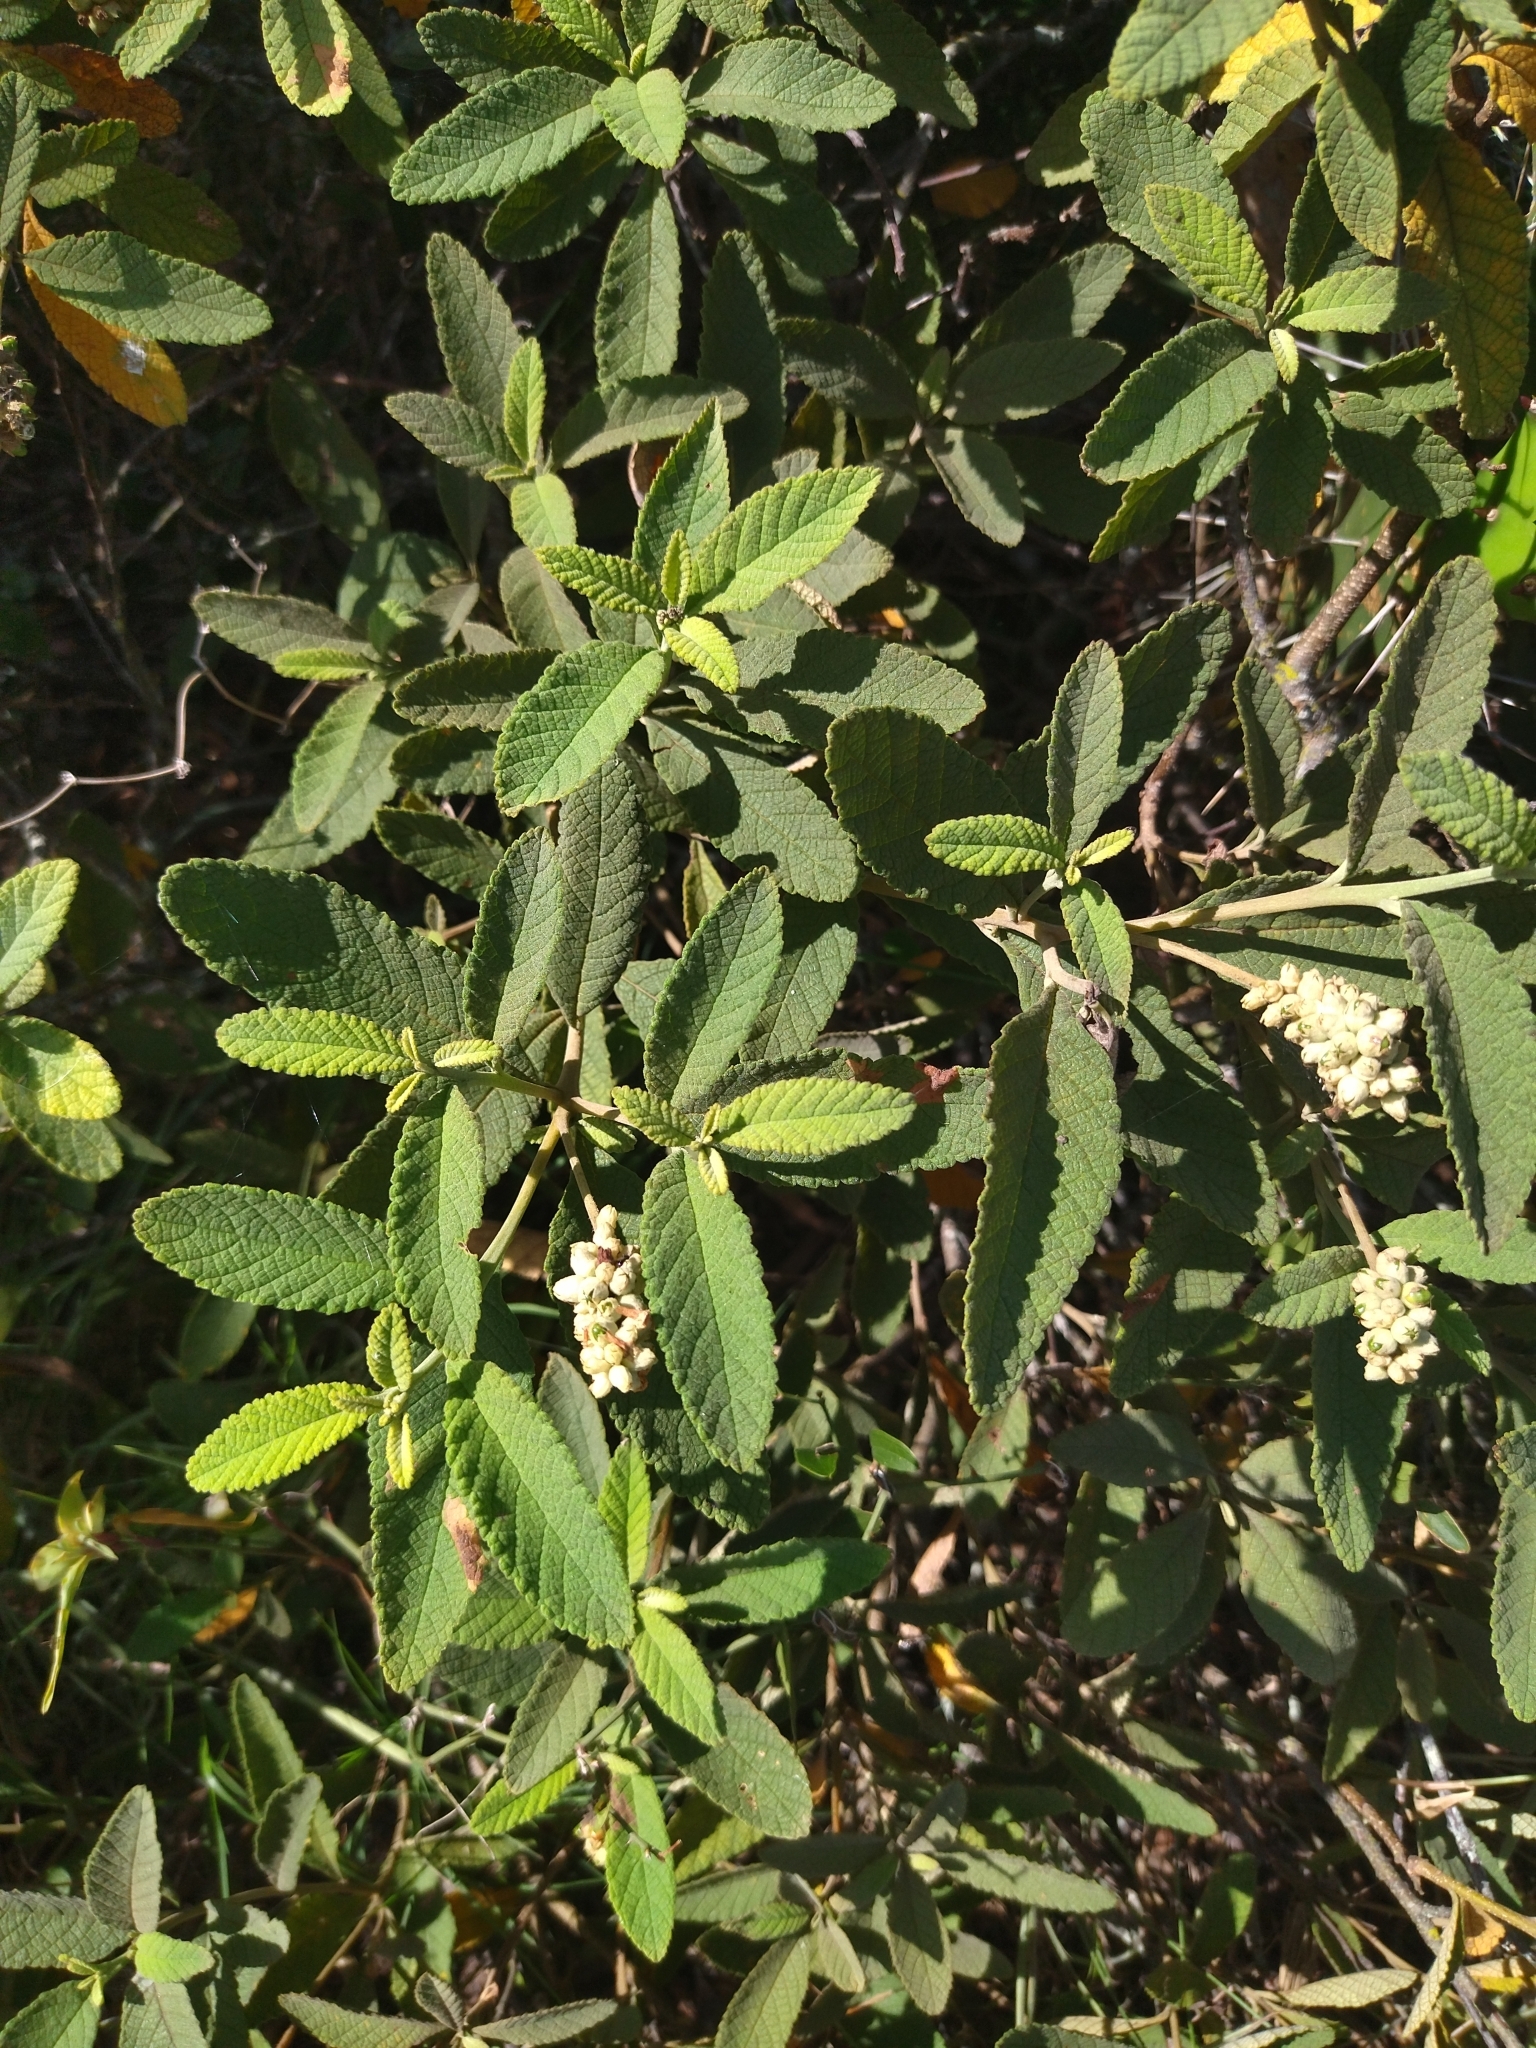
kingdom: Plantae
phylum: Tracheophyta
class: Magnoliopsida
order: Boraginales
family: Cordiaceae
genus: Varronia
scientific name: Varronia curassavica
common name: Black sage
